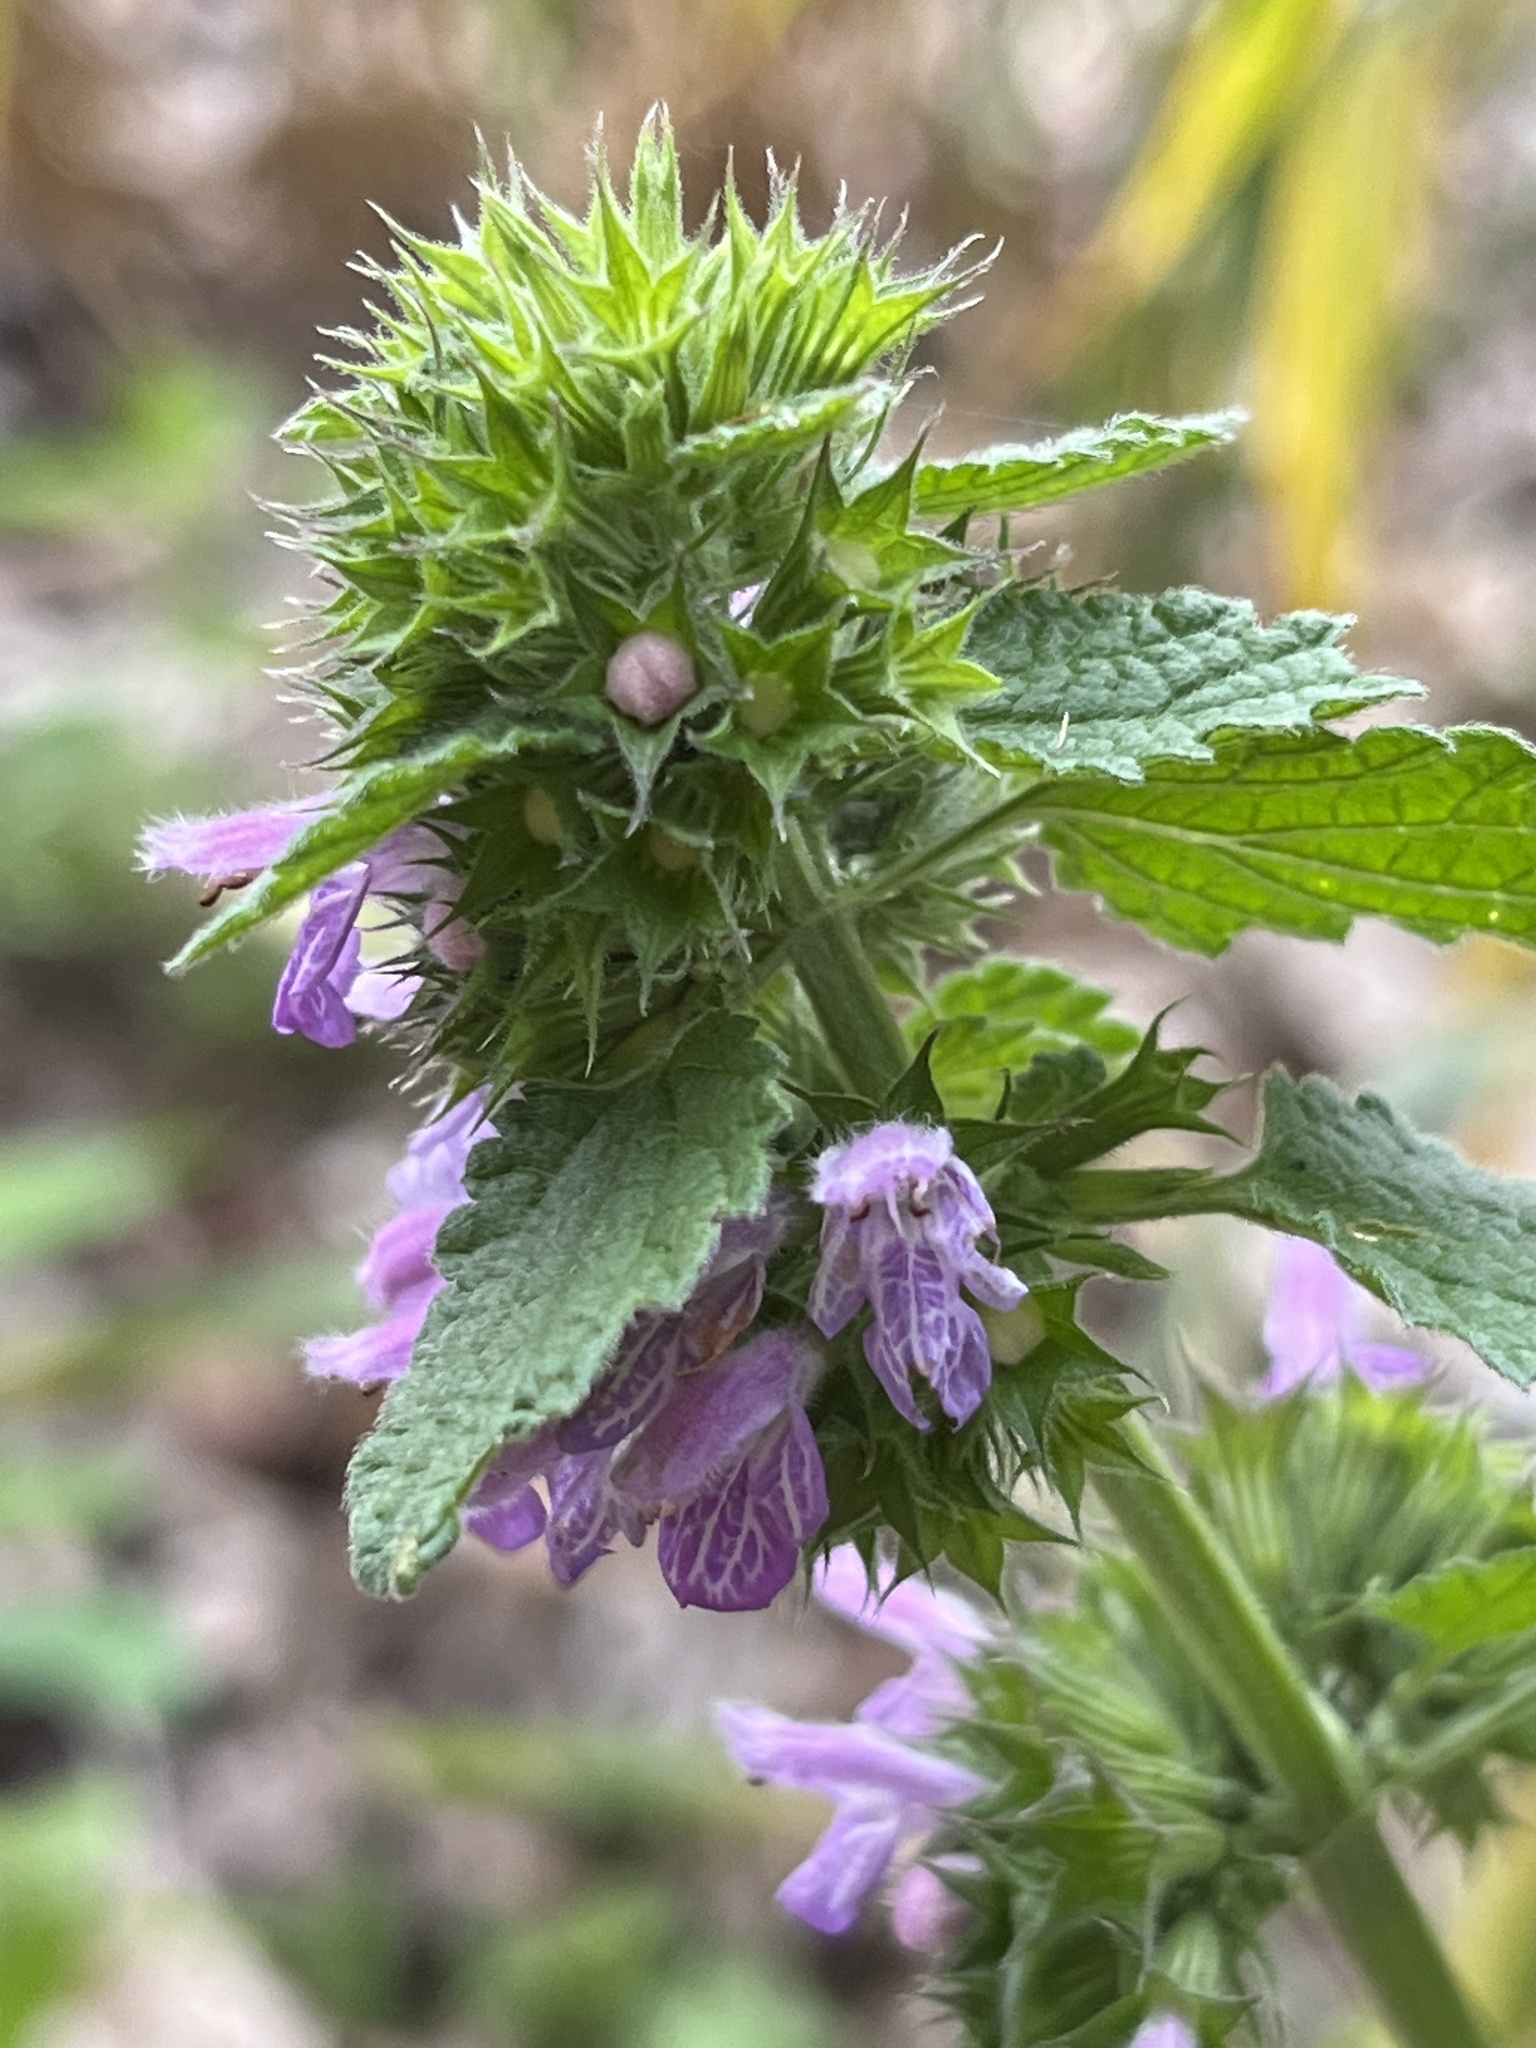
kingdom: Plantae
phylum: Tracheophyta
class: Magnoliopsida
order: Lamiales
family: Lamiaceae
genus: Ballota
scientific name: Ballota nigra
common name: Black horehound
